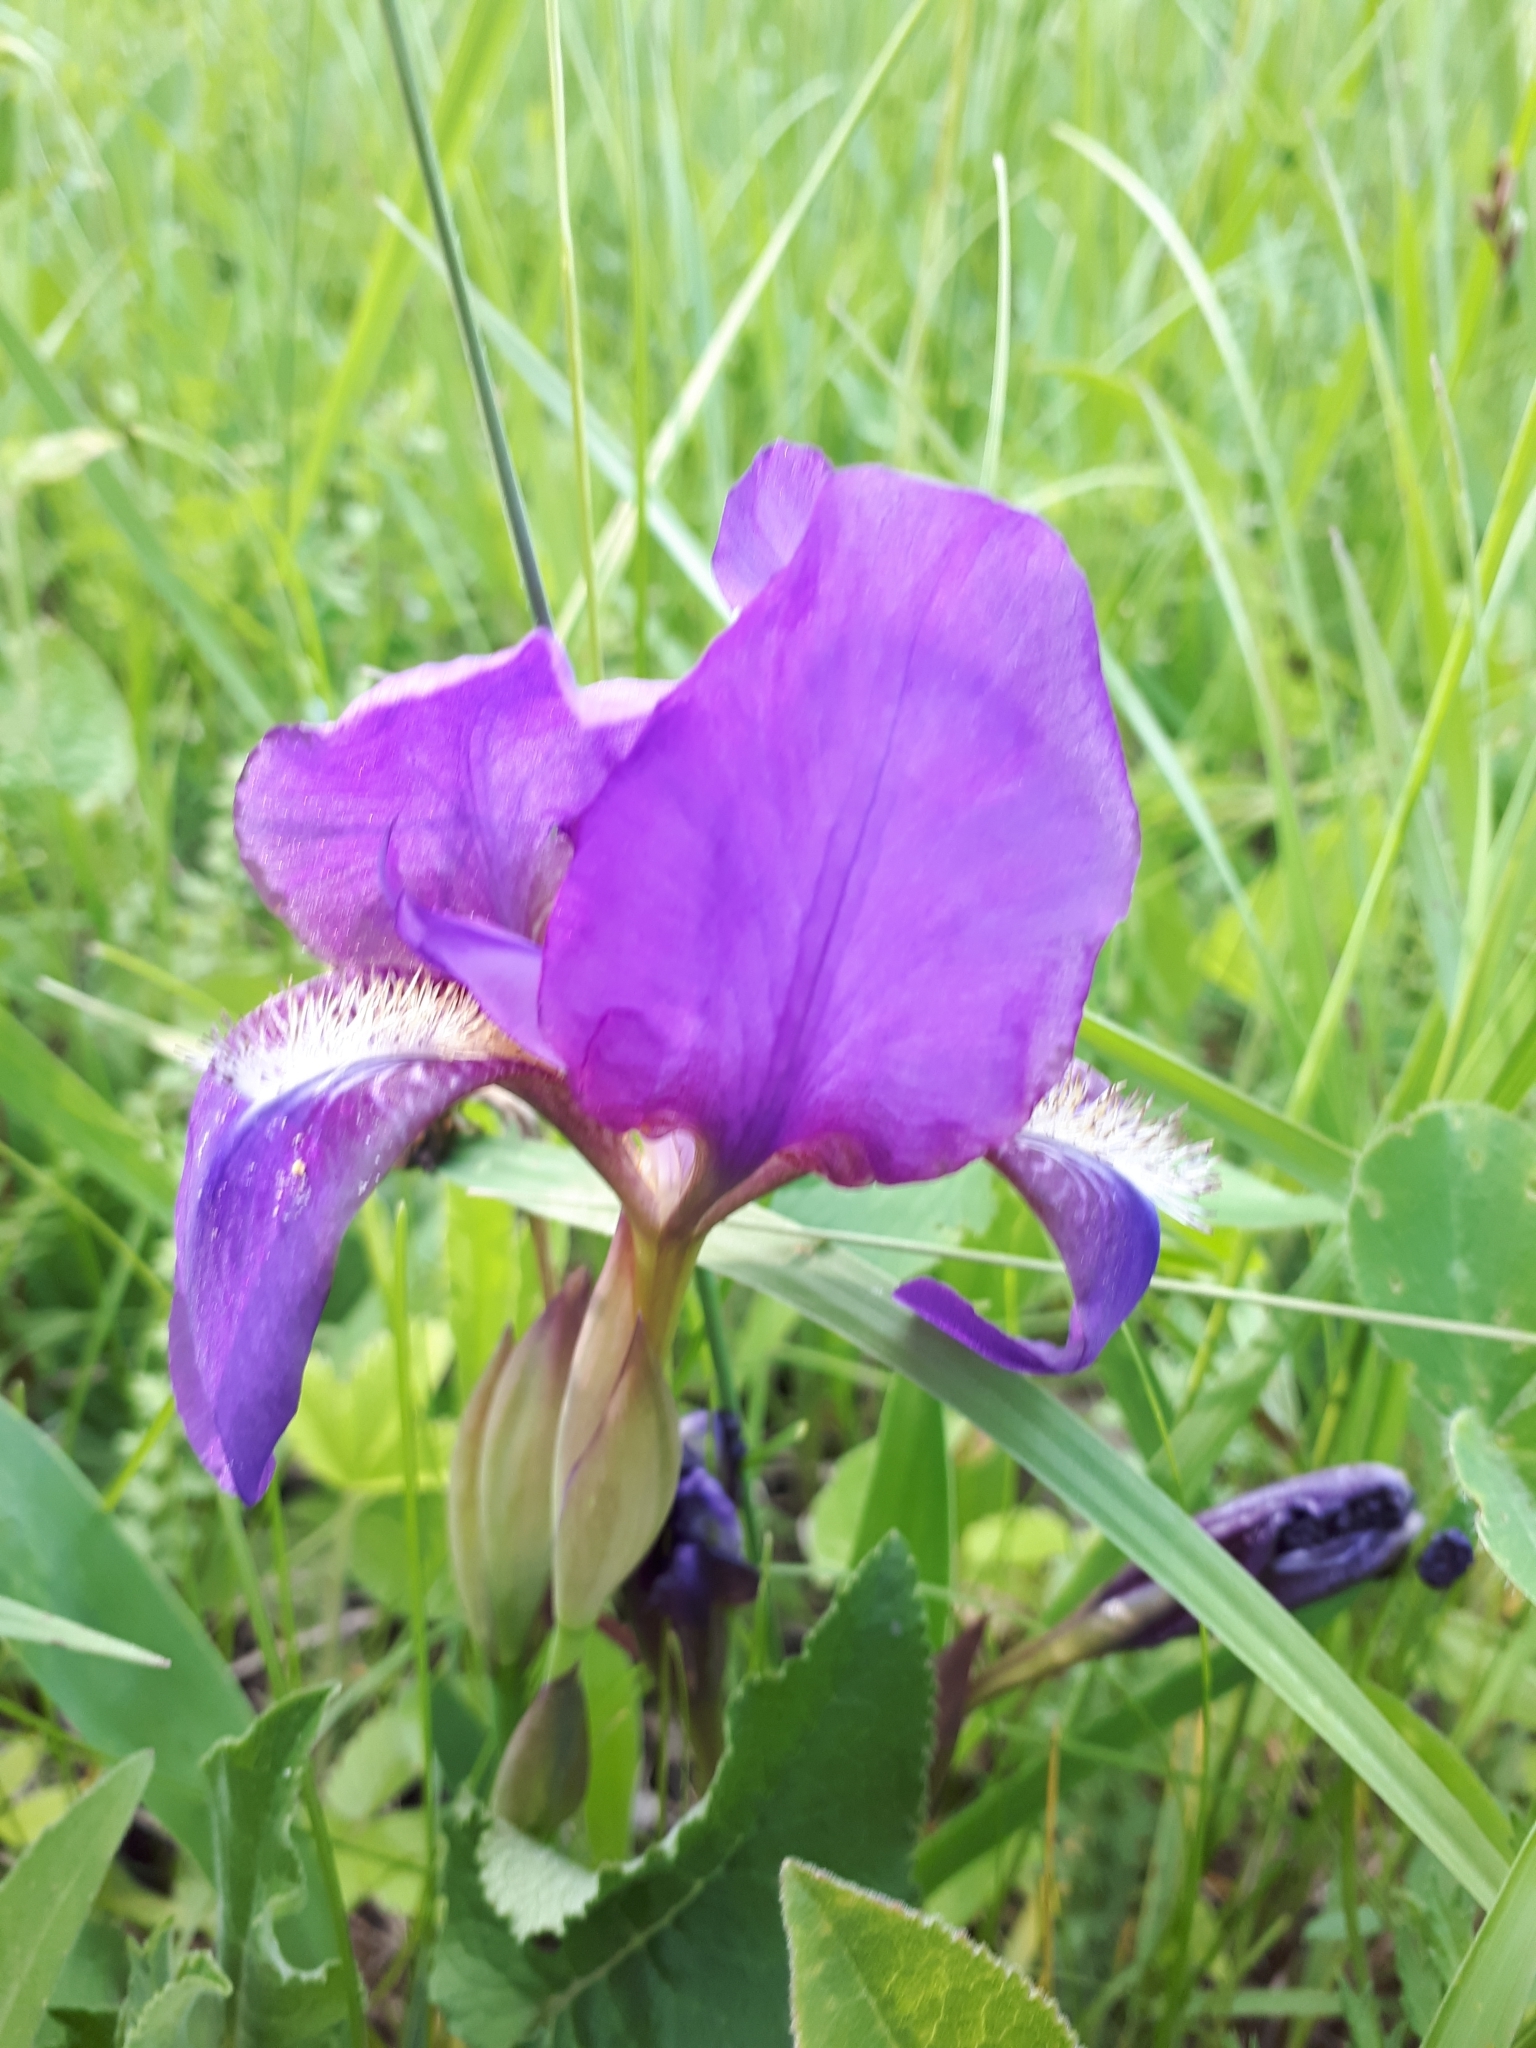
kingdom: Plantae
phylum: Tracheophyta
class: Liliopsida
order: Asparagales
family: Iridaceae
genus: Iris
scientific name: Iris aphylla
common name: Stool iris
